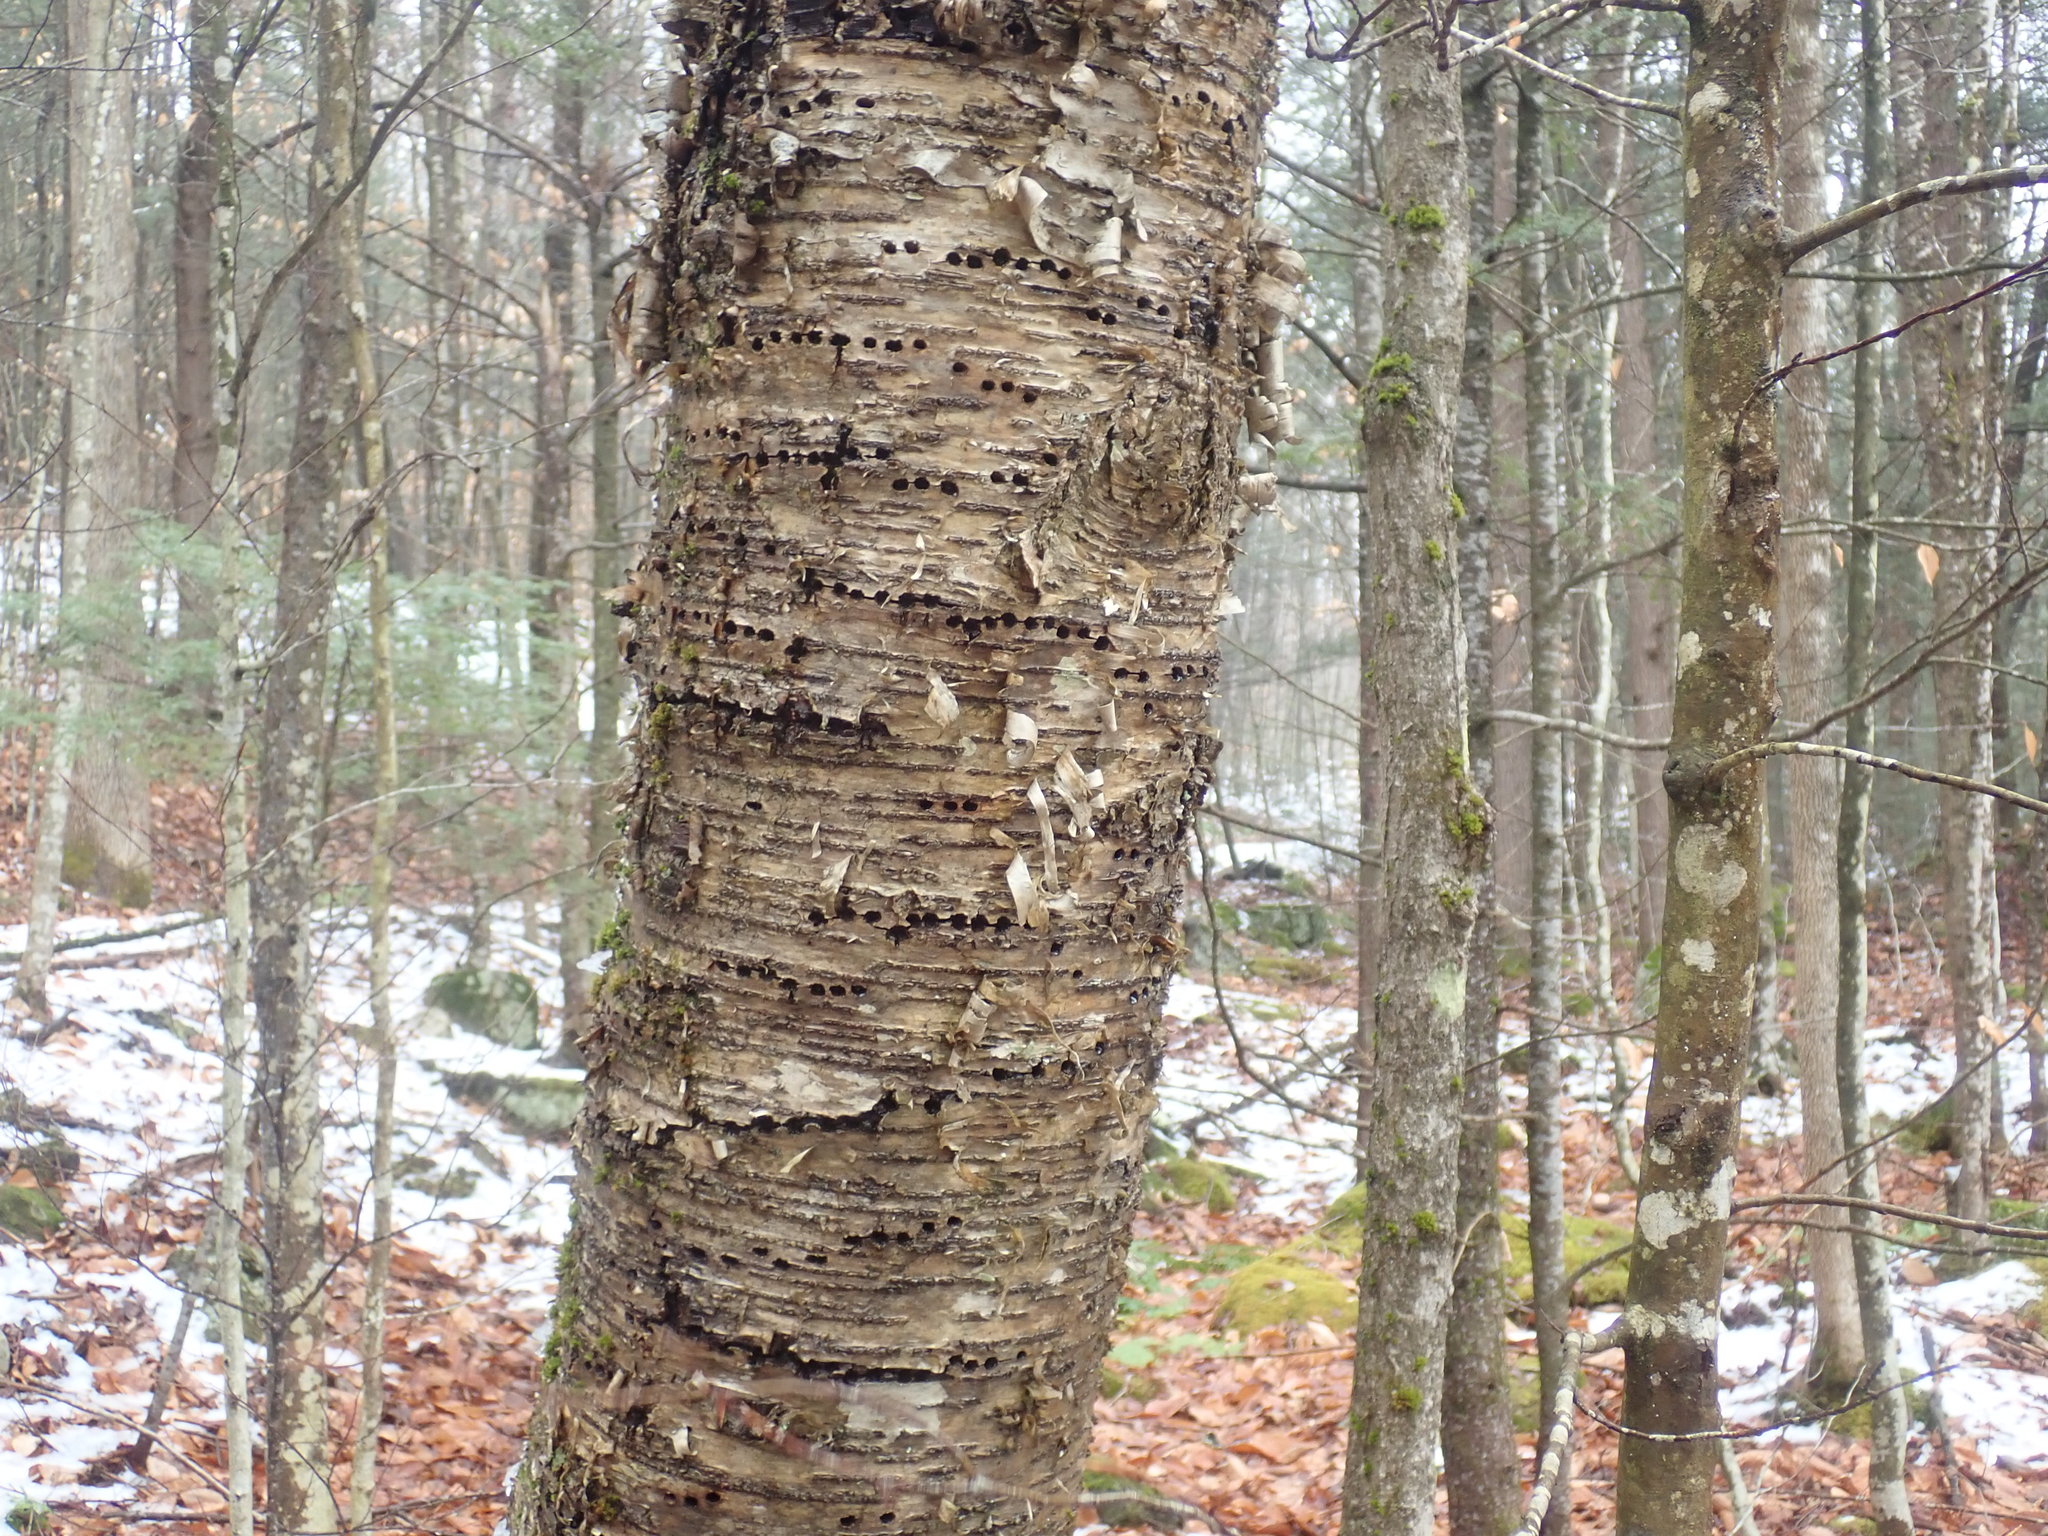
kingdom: Animalia
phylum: Chordata
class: Aves
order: Piciformes
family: Picidae
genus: Sphyrapicus
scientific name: Sphyrapicus varius
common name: Yellow-bellied sapsucker
